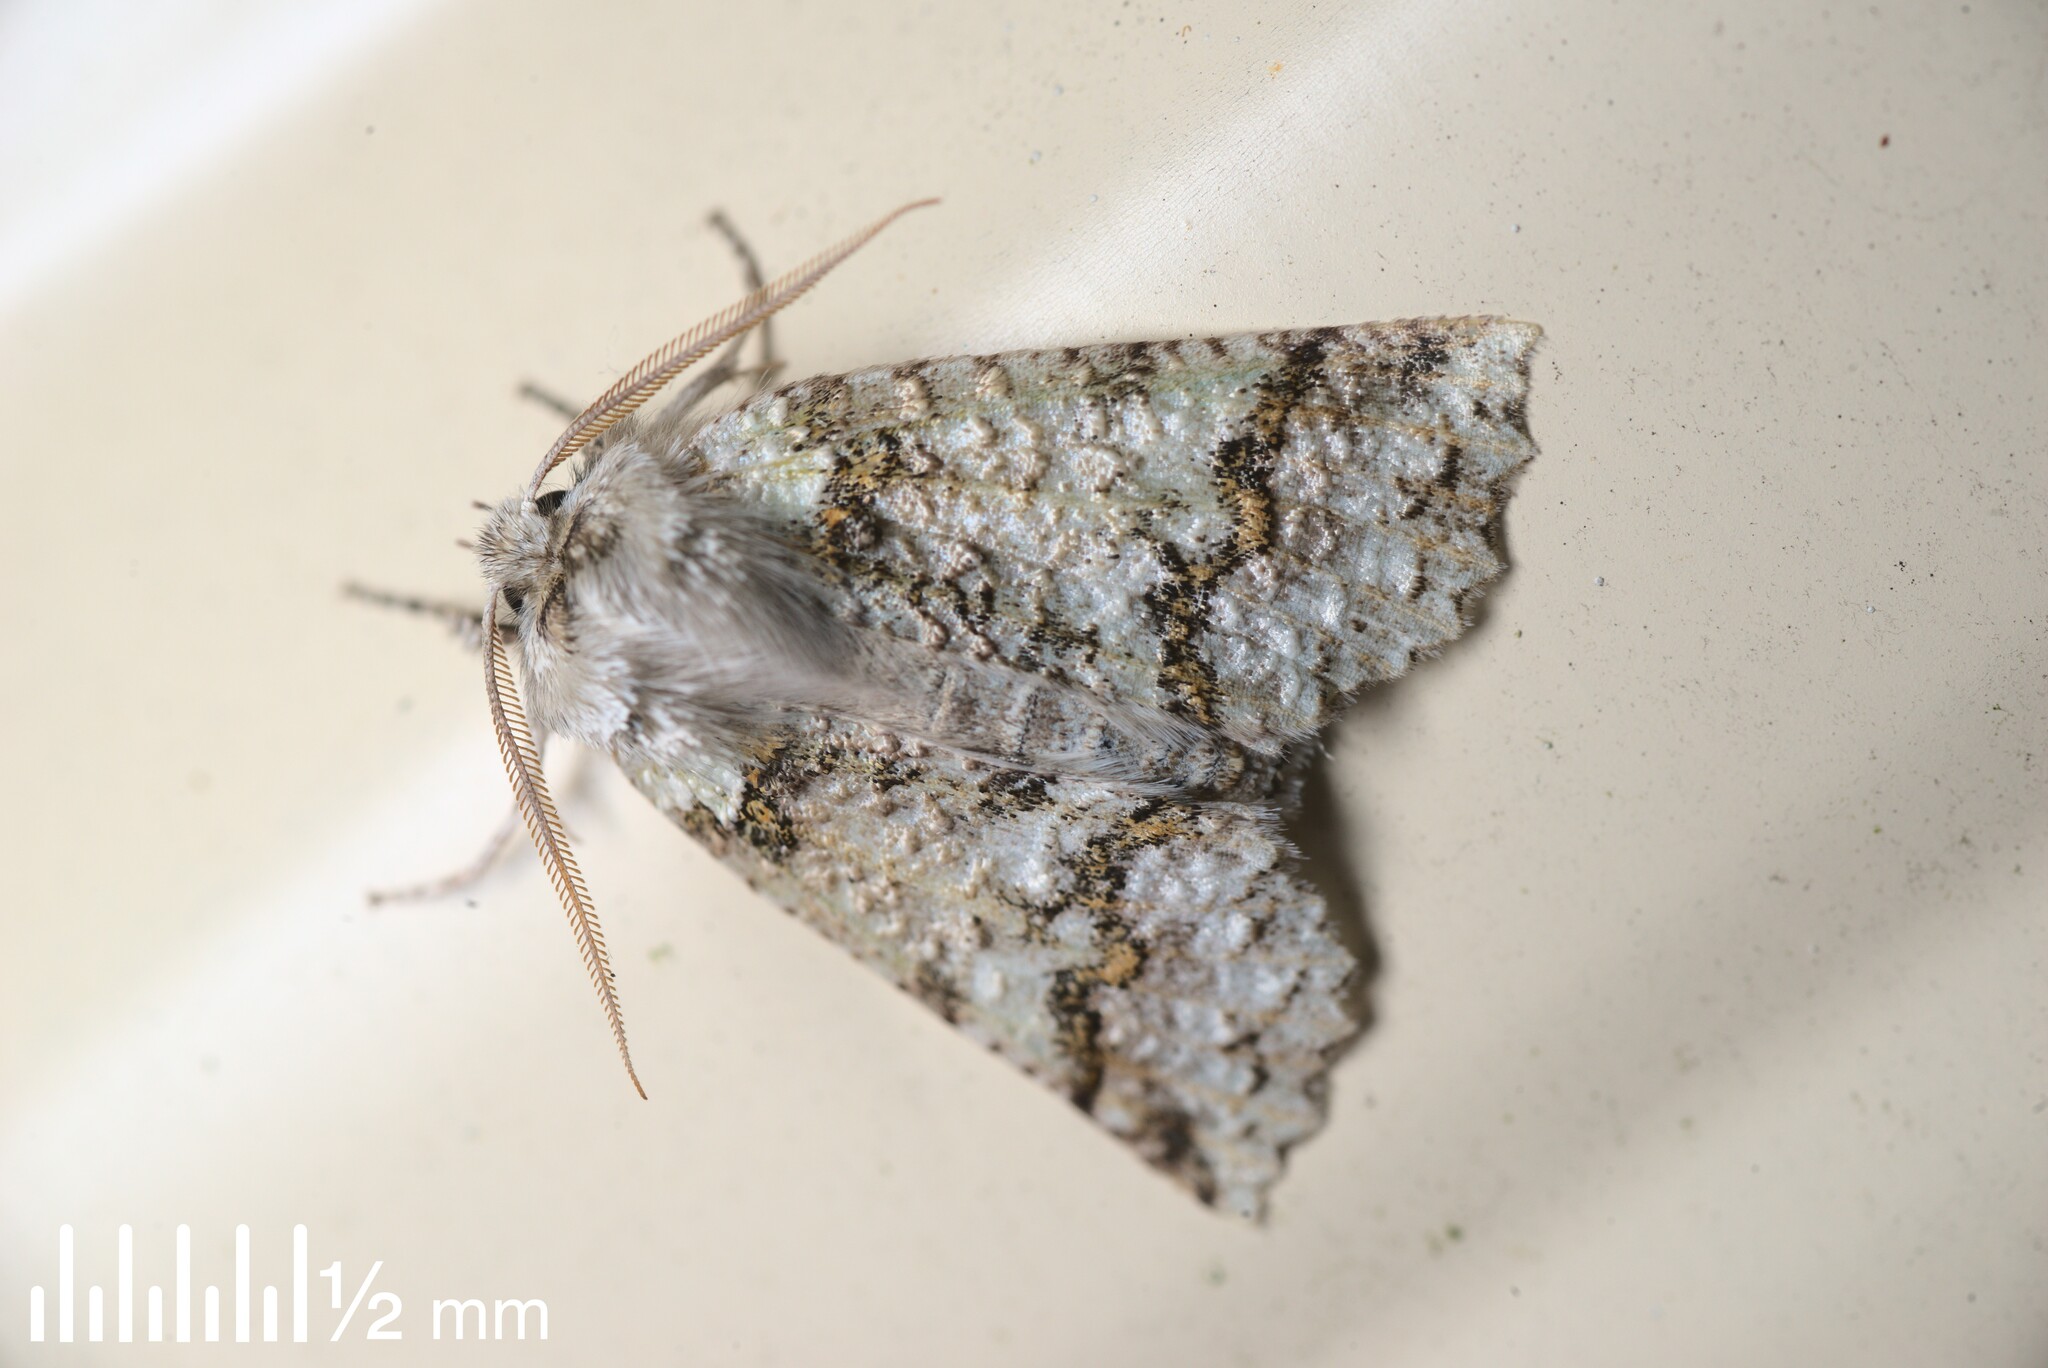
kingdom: Animalia
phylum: Arthropoda
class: Insecta
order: Lepidoptera
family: Geometridae
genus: Declana
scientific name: Declana floccosa
